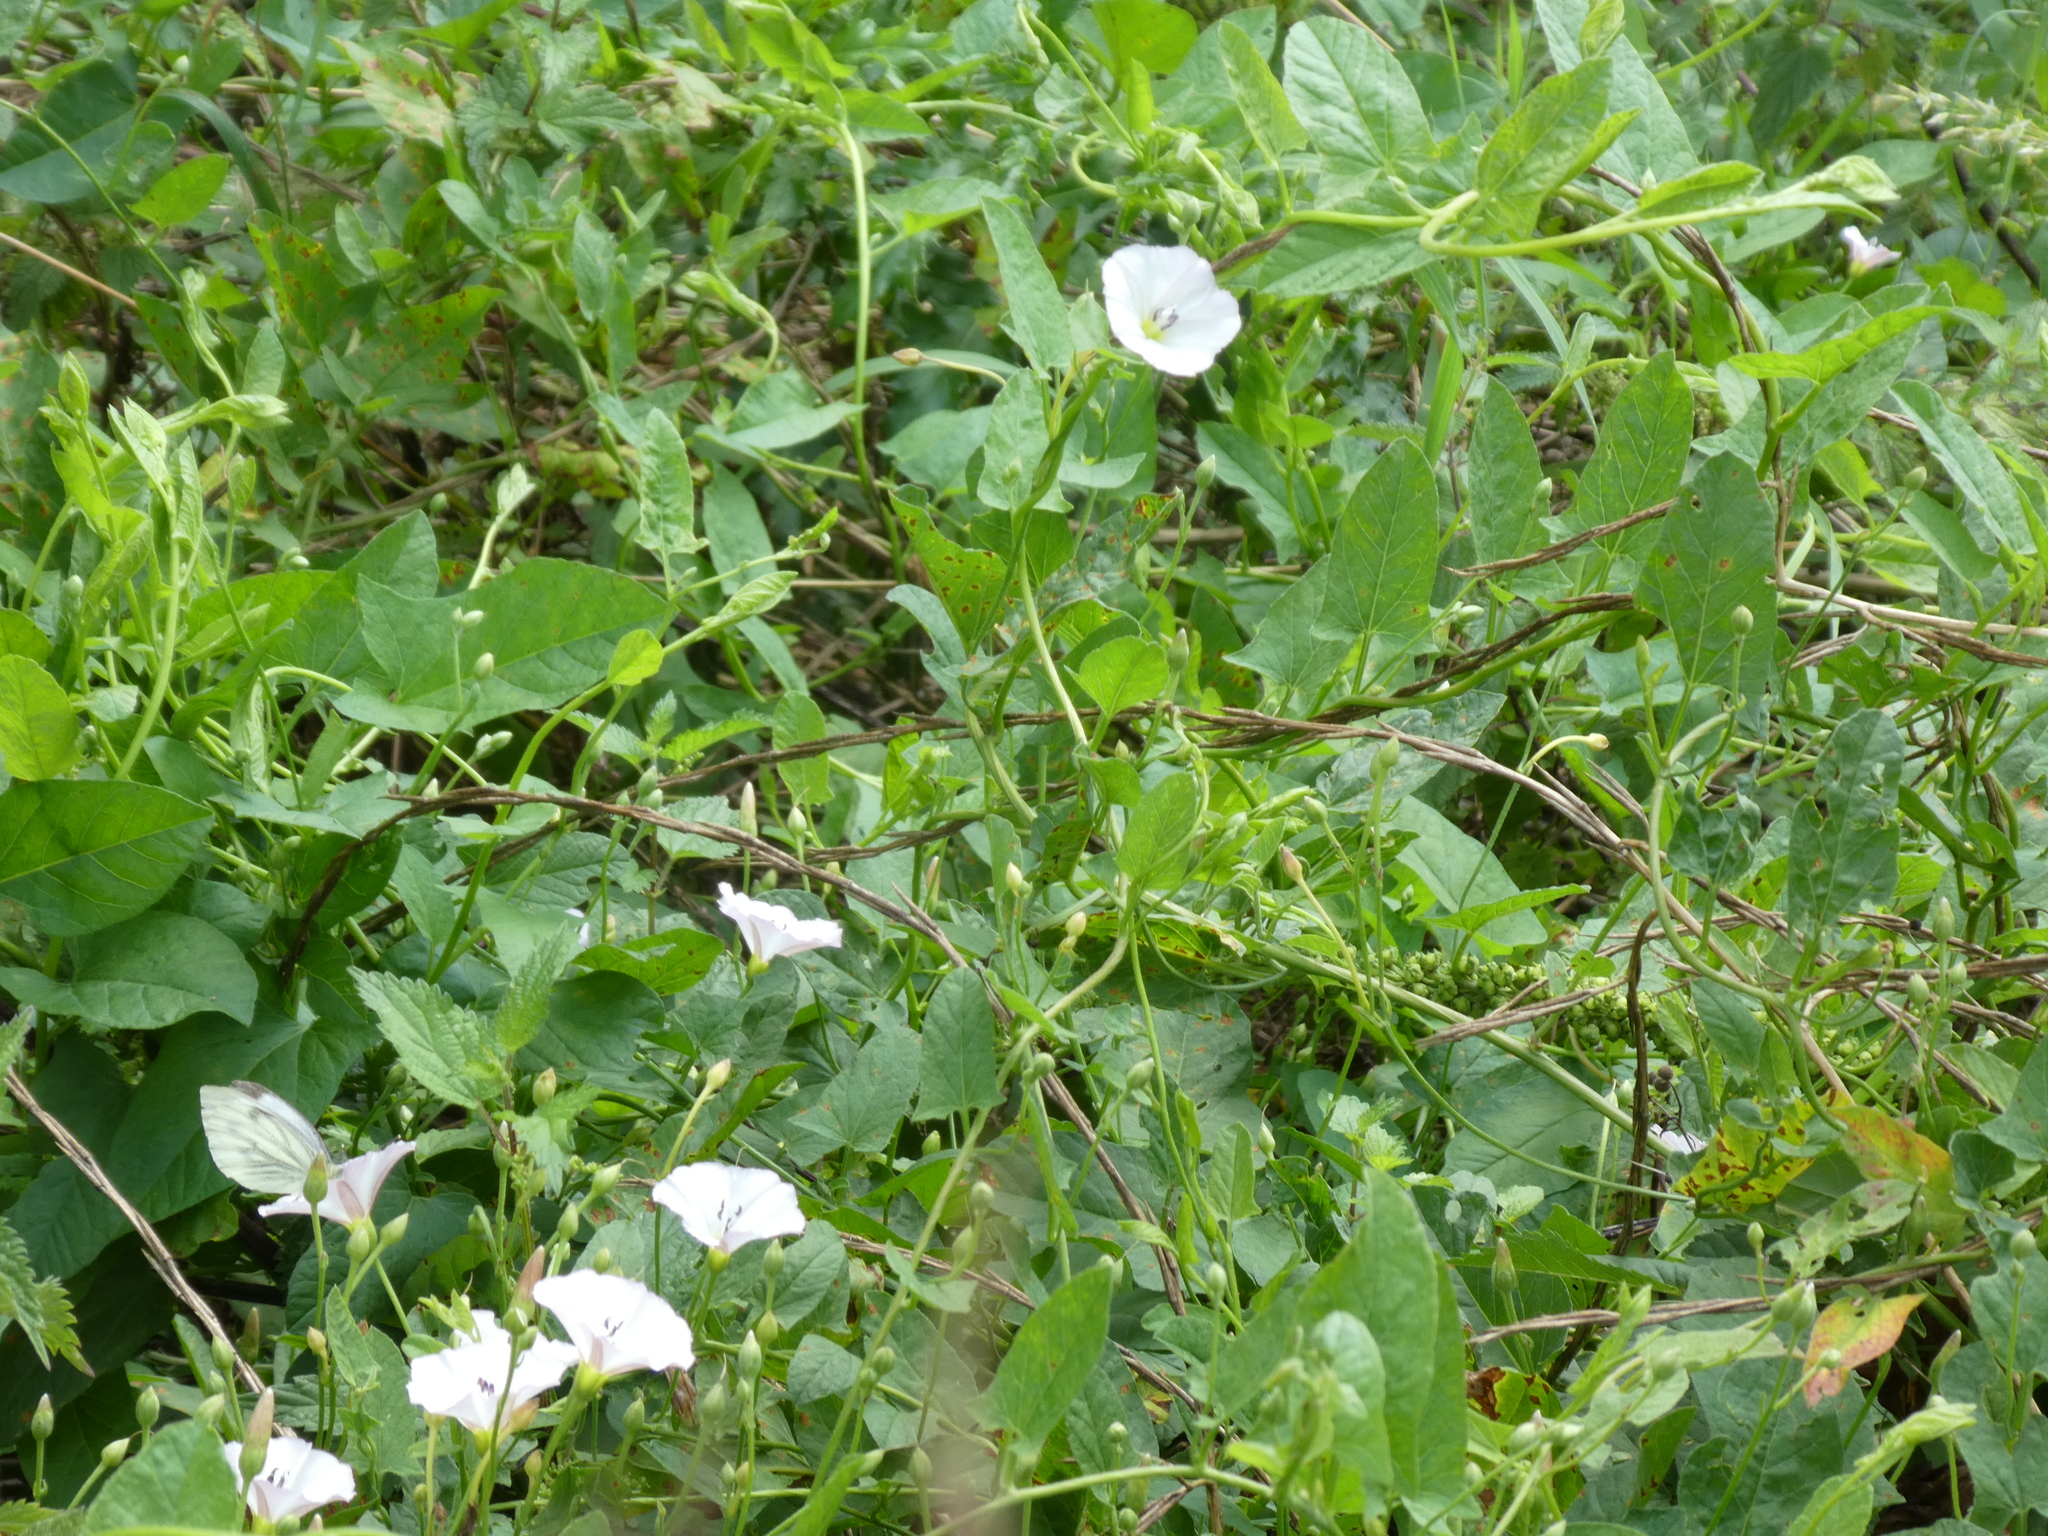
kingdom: Plantae
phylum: Tracheophyta
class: Magnoliopsida
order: Solanales
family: Convolvulaceae
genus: Convolvulus
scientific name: Convolvulus arvensis
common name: Field bindweed
